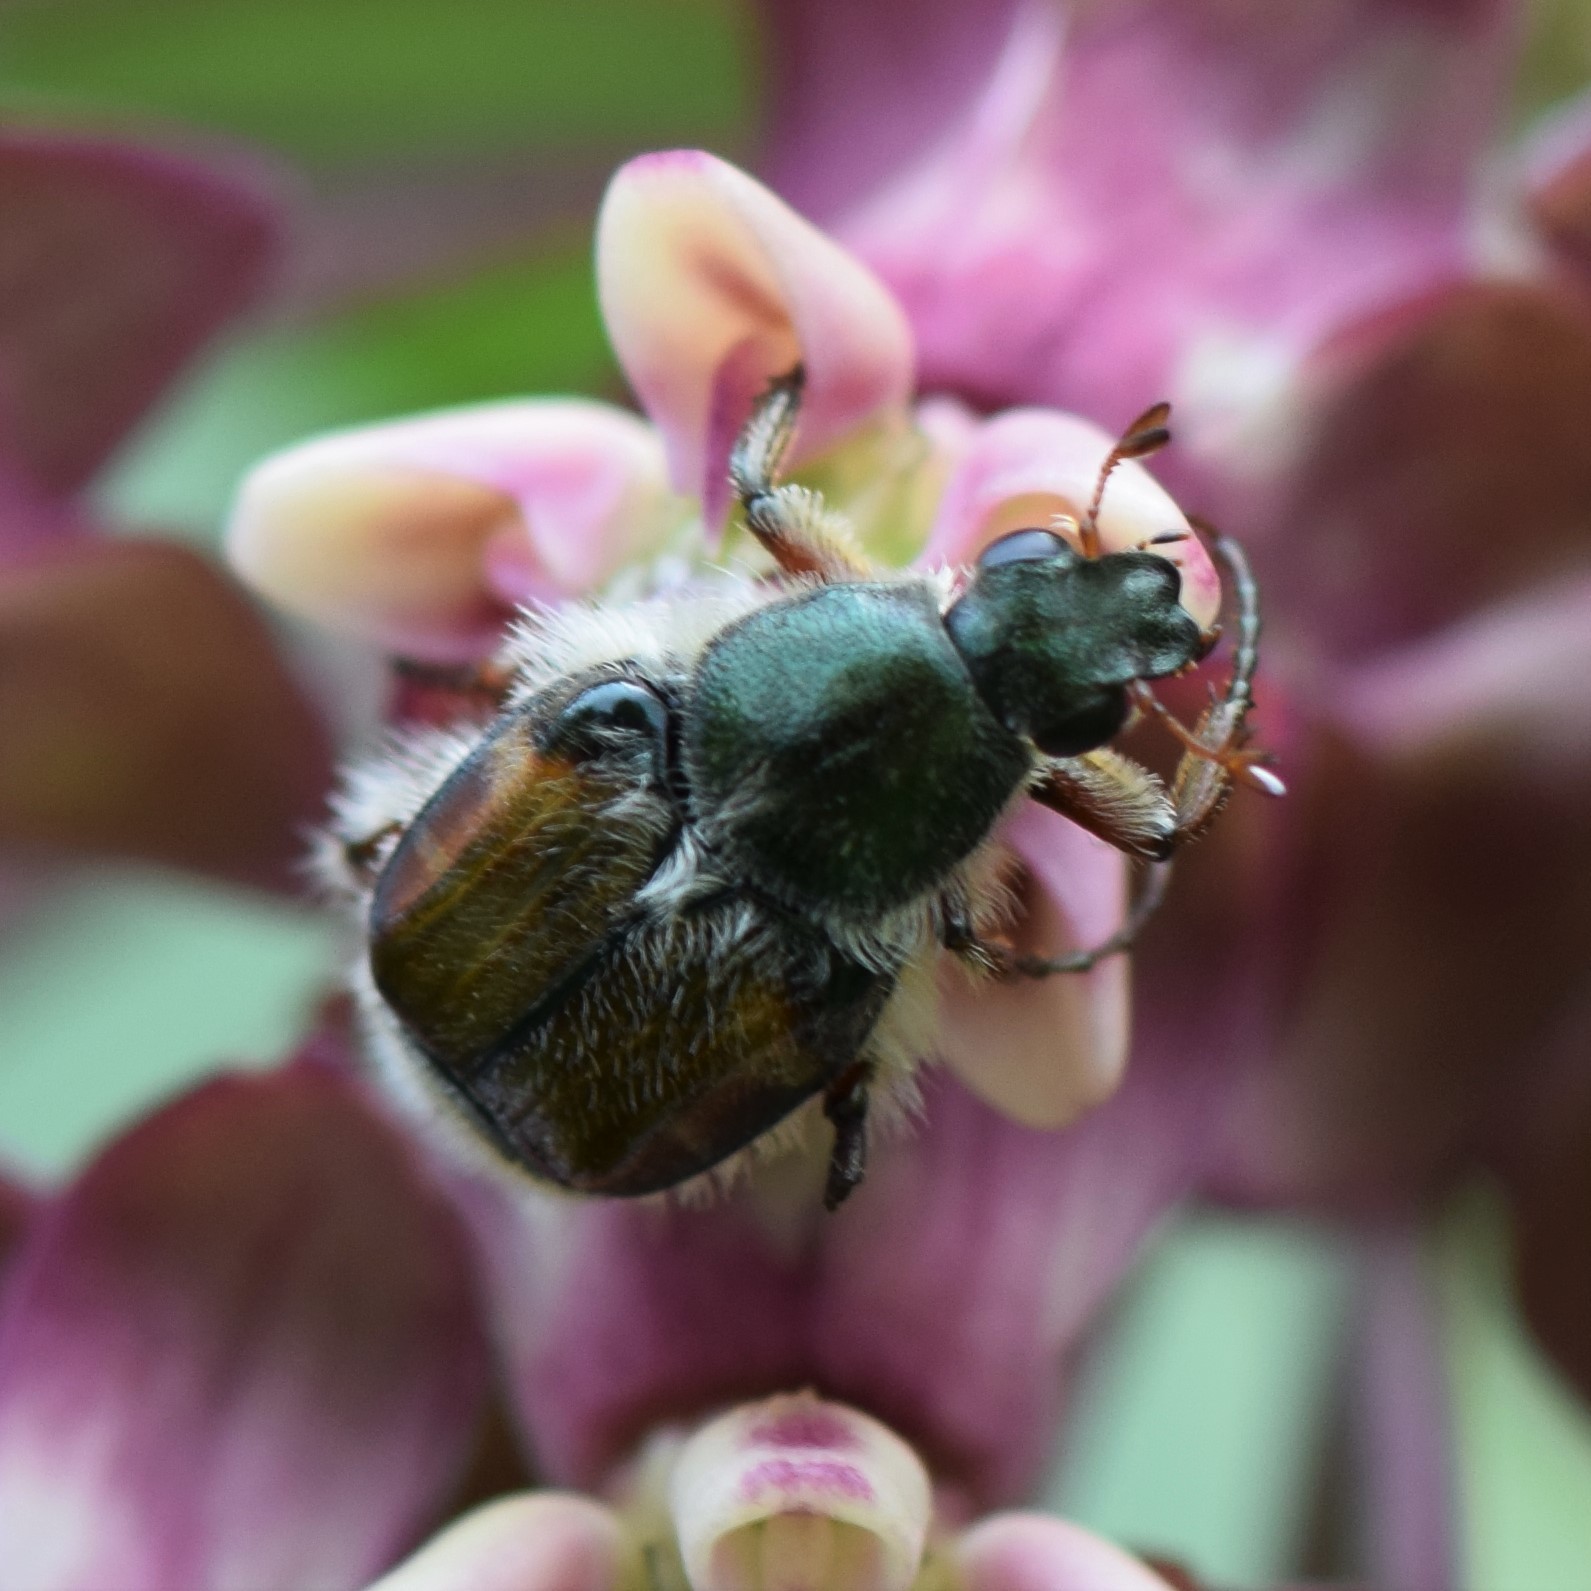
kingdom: Animalia
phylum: Arthropoda
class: Insecta
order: Coleoptera
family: Scarabaeidae
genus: Trichiotinus
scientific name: Trichiotinus affinis
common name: Hairy flower scarab
